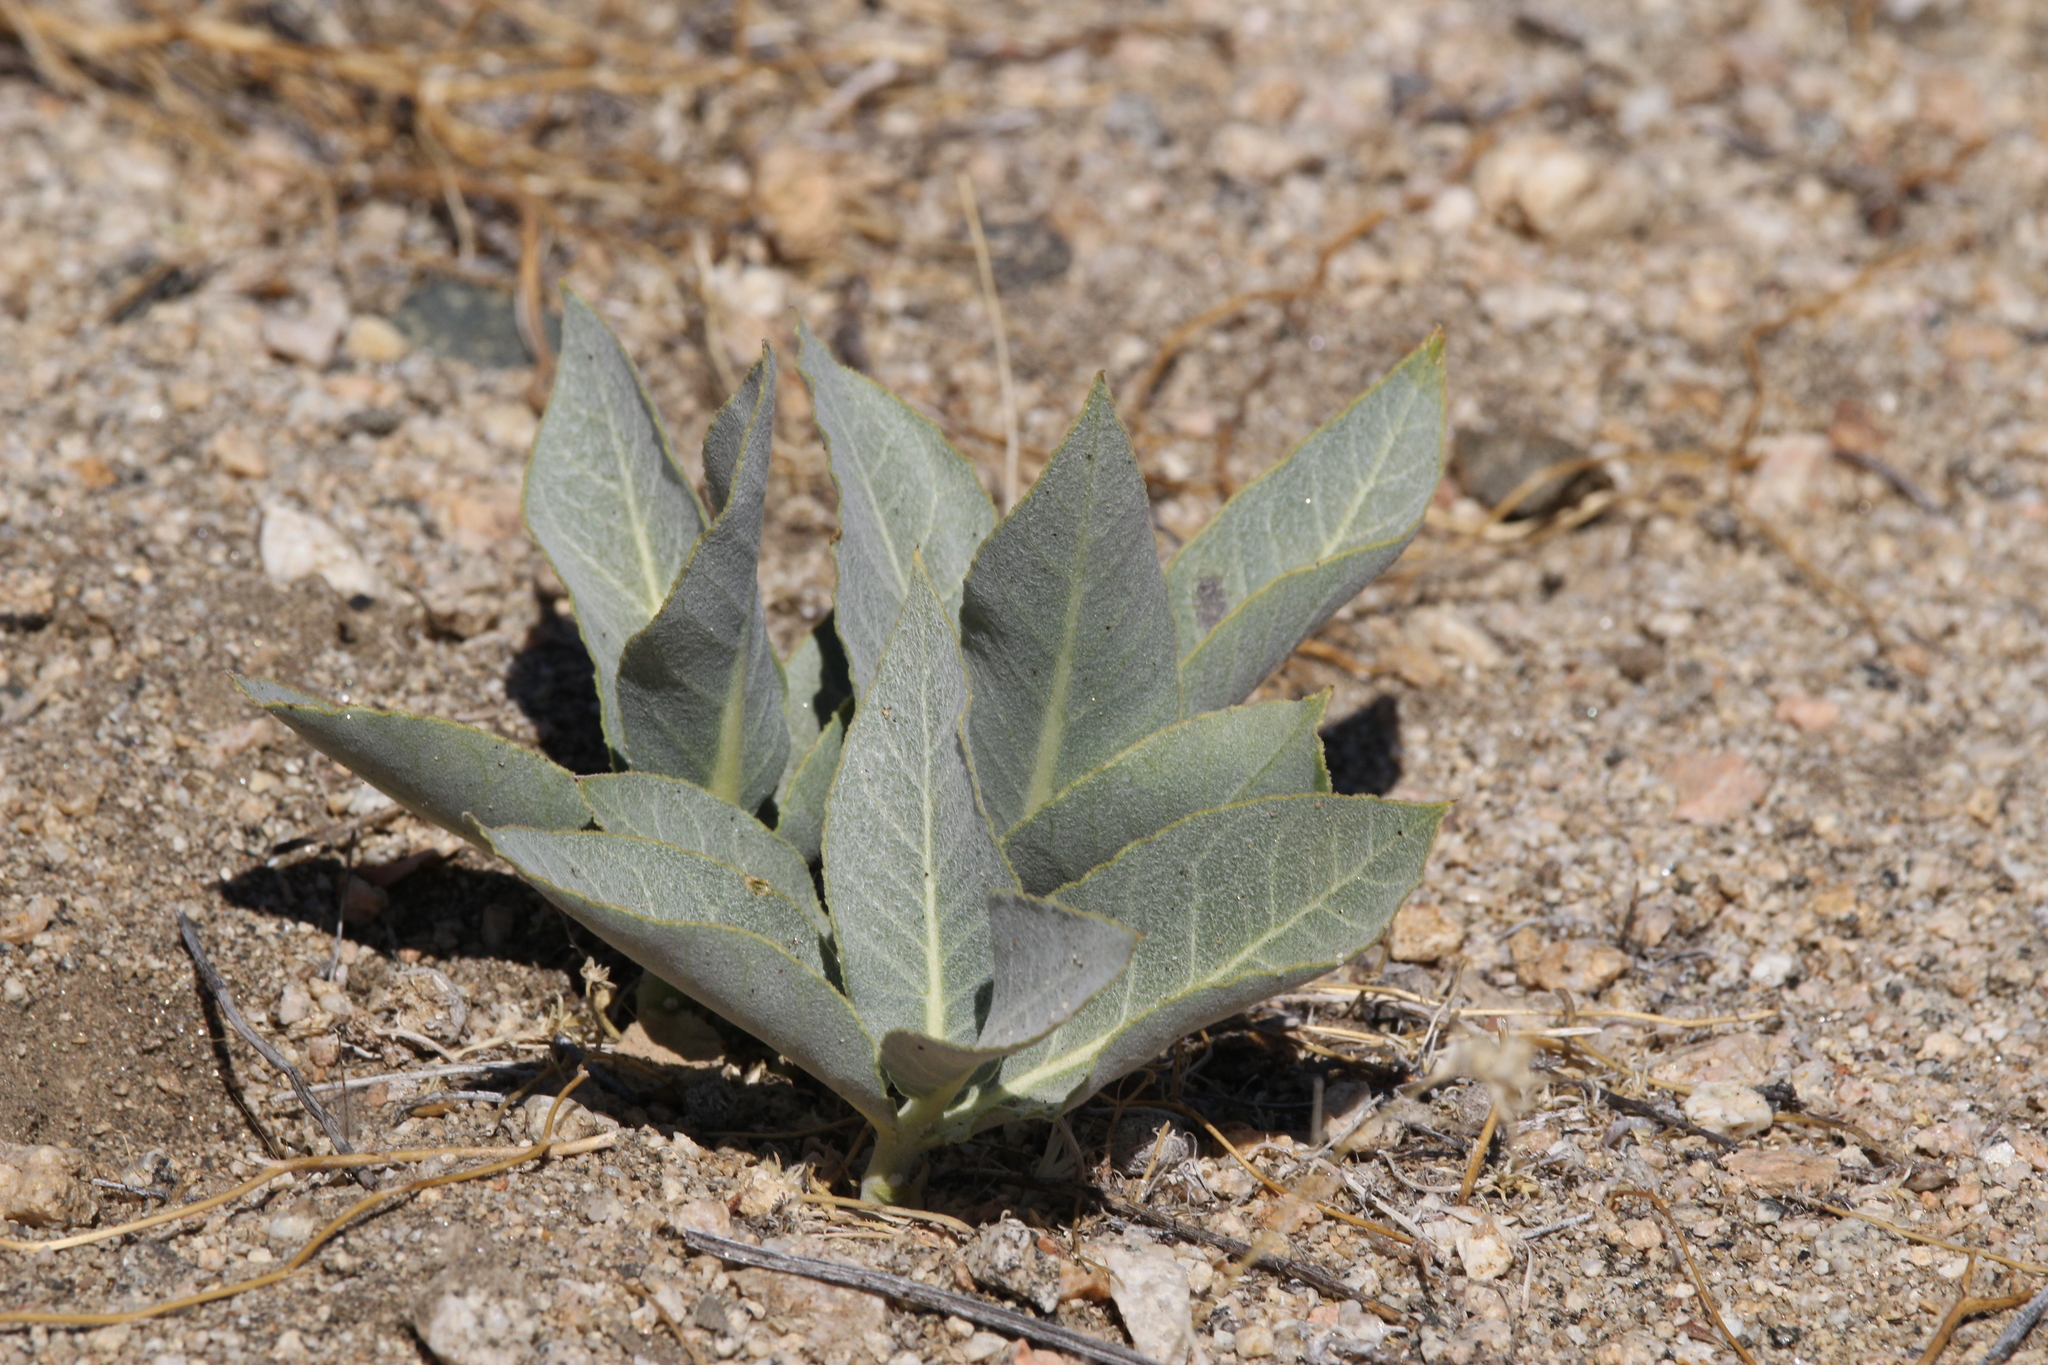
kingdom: Plantae
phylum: Tracheophyta
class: Magnoliopsida
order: Gentianales
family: Apocynaceae
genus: Asclepias
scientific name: Asclepias erosa
